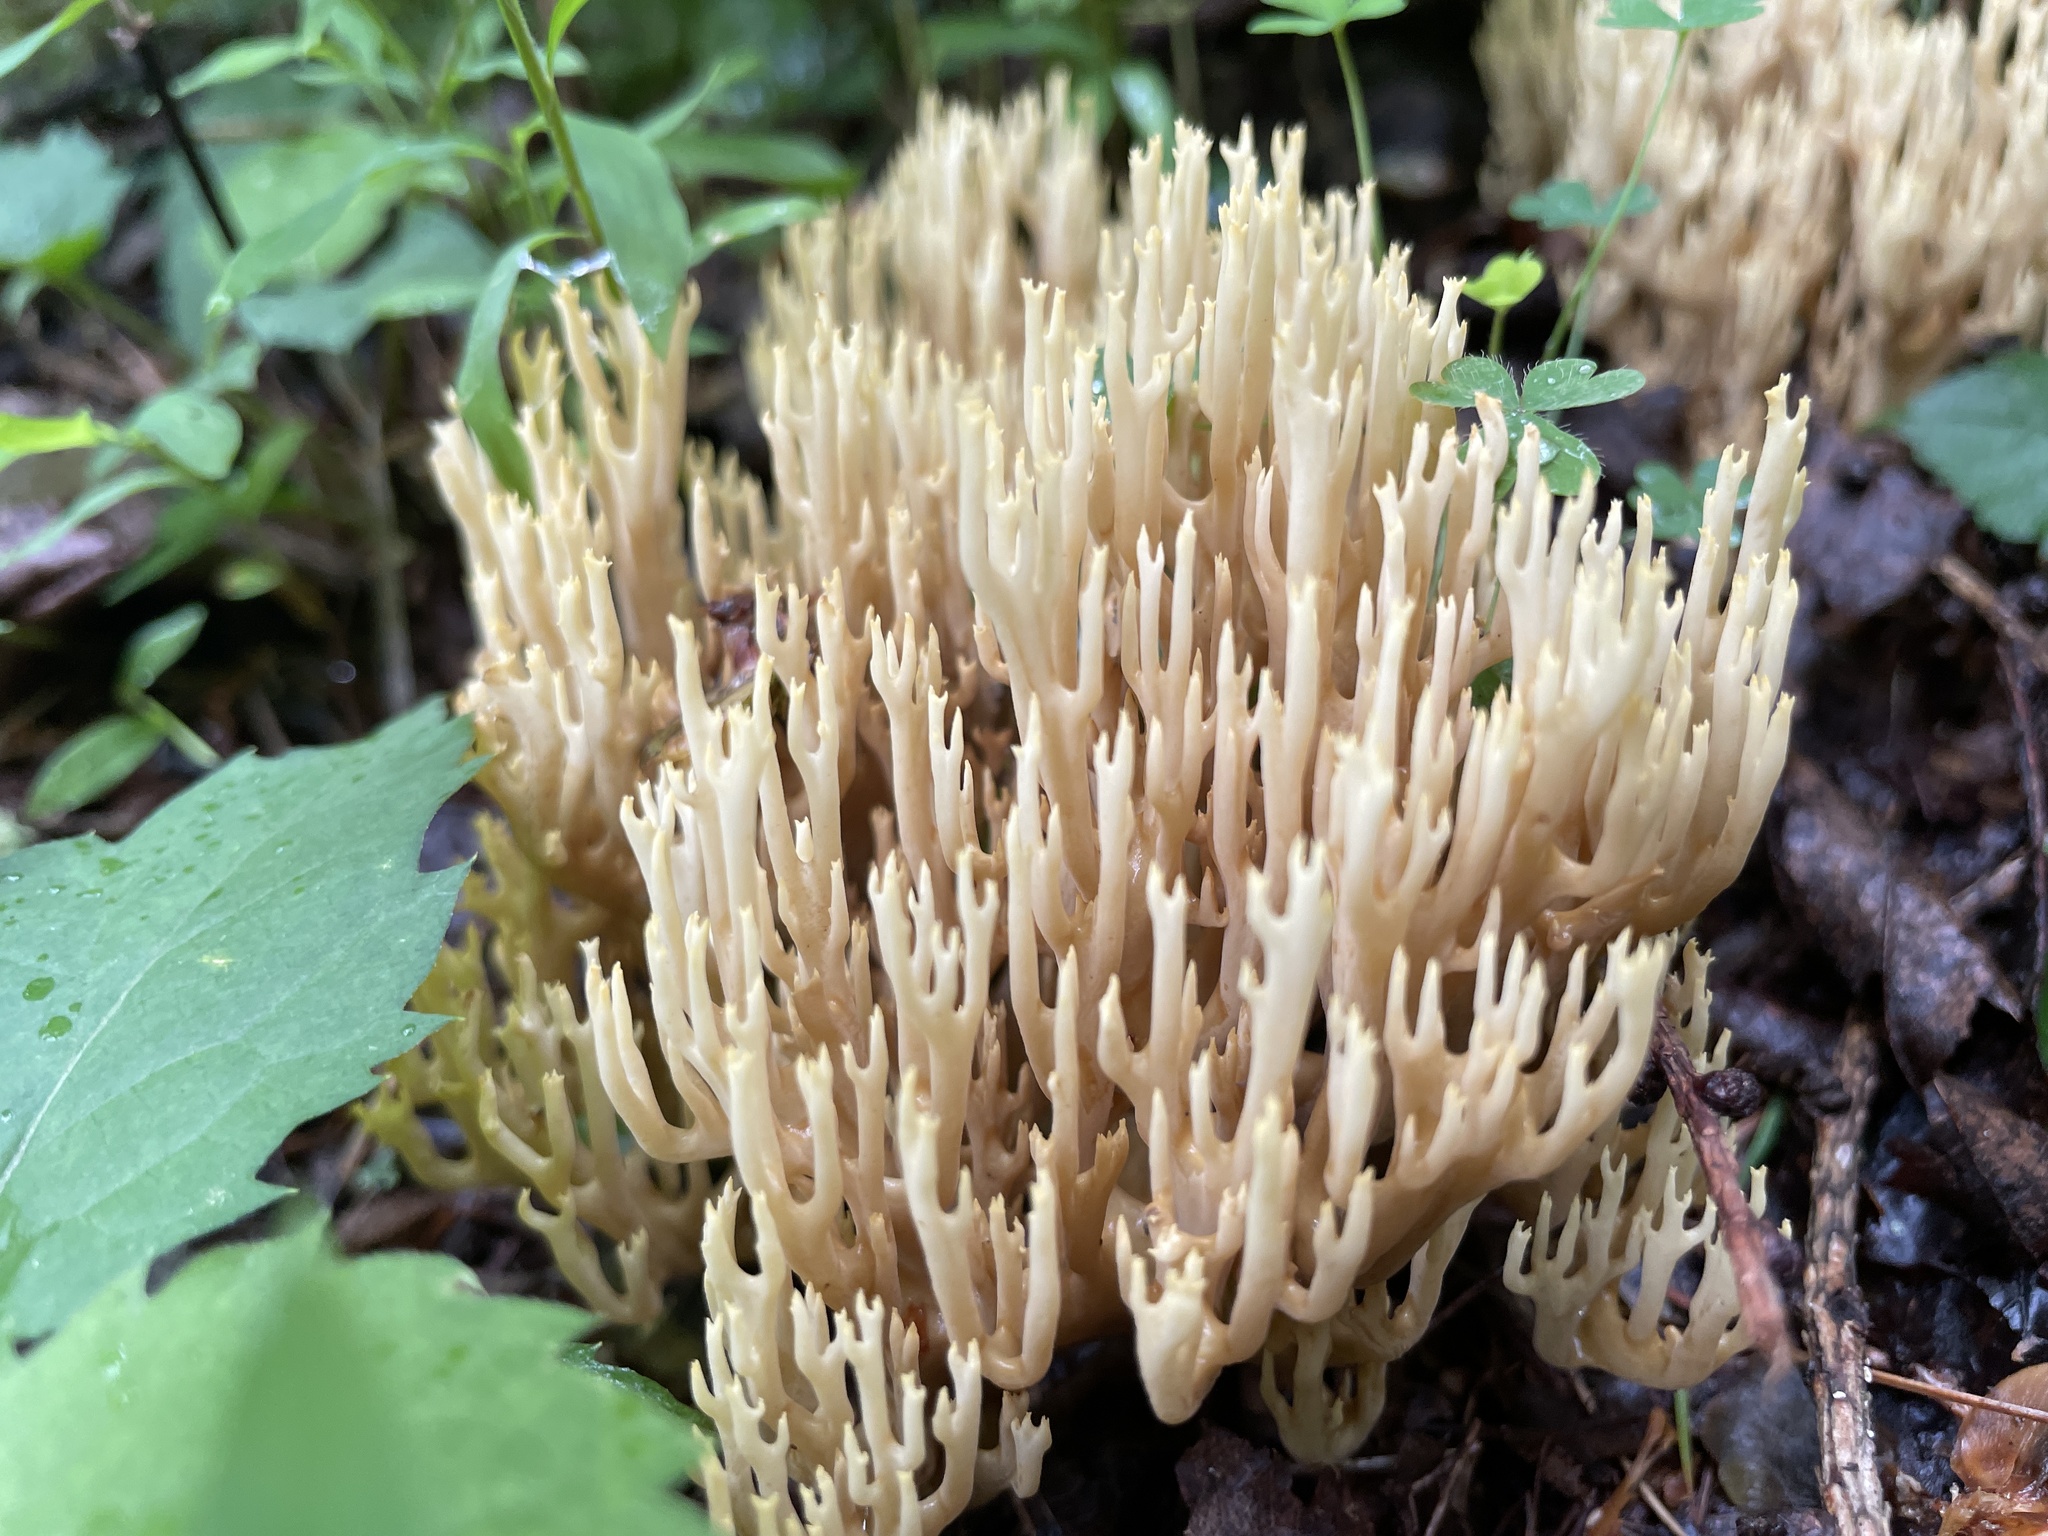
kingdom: Fungi
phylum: Basidiomycota
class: Agaricomycetes
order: Gomphales
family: Gomphaceae
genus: Ramaria
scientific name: Ramaria stricta
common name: Upright coral
